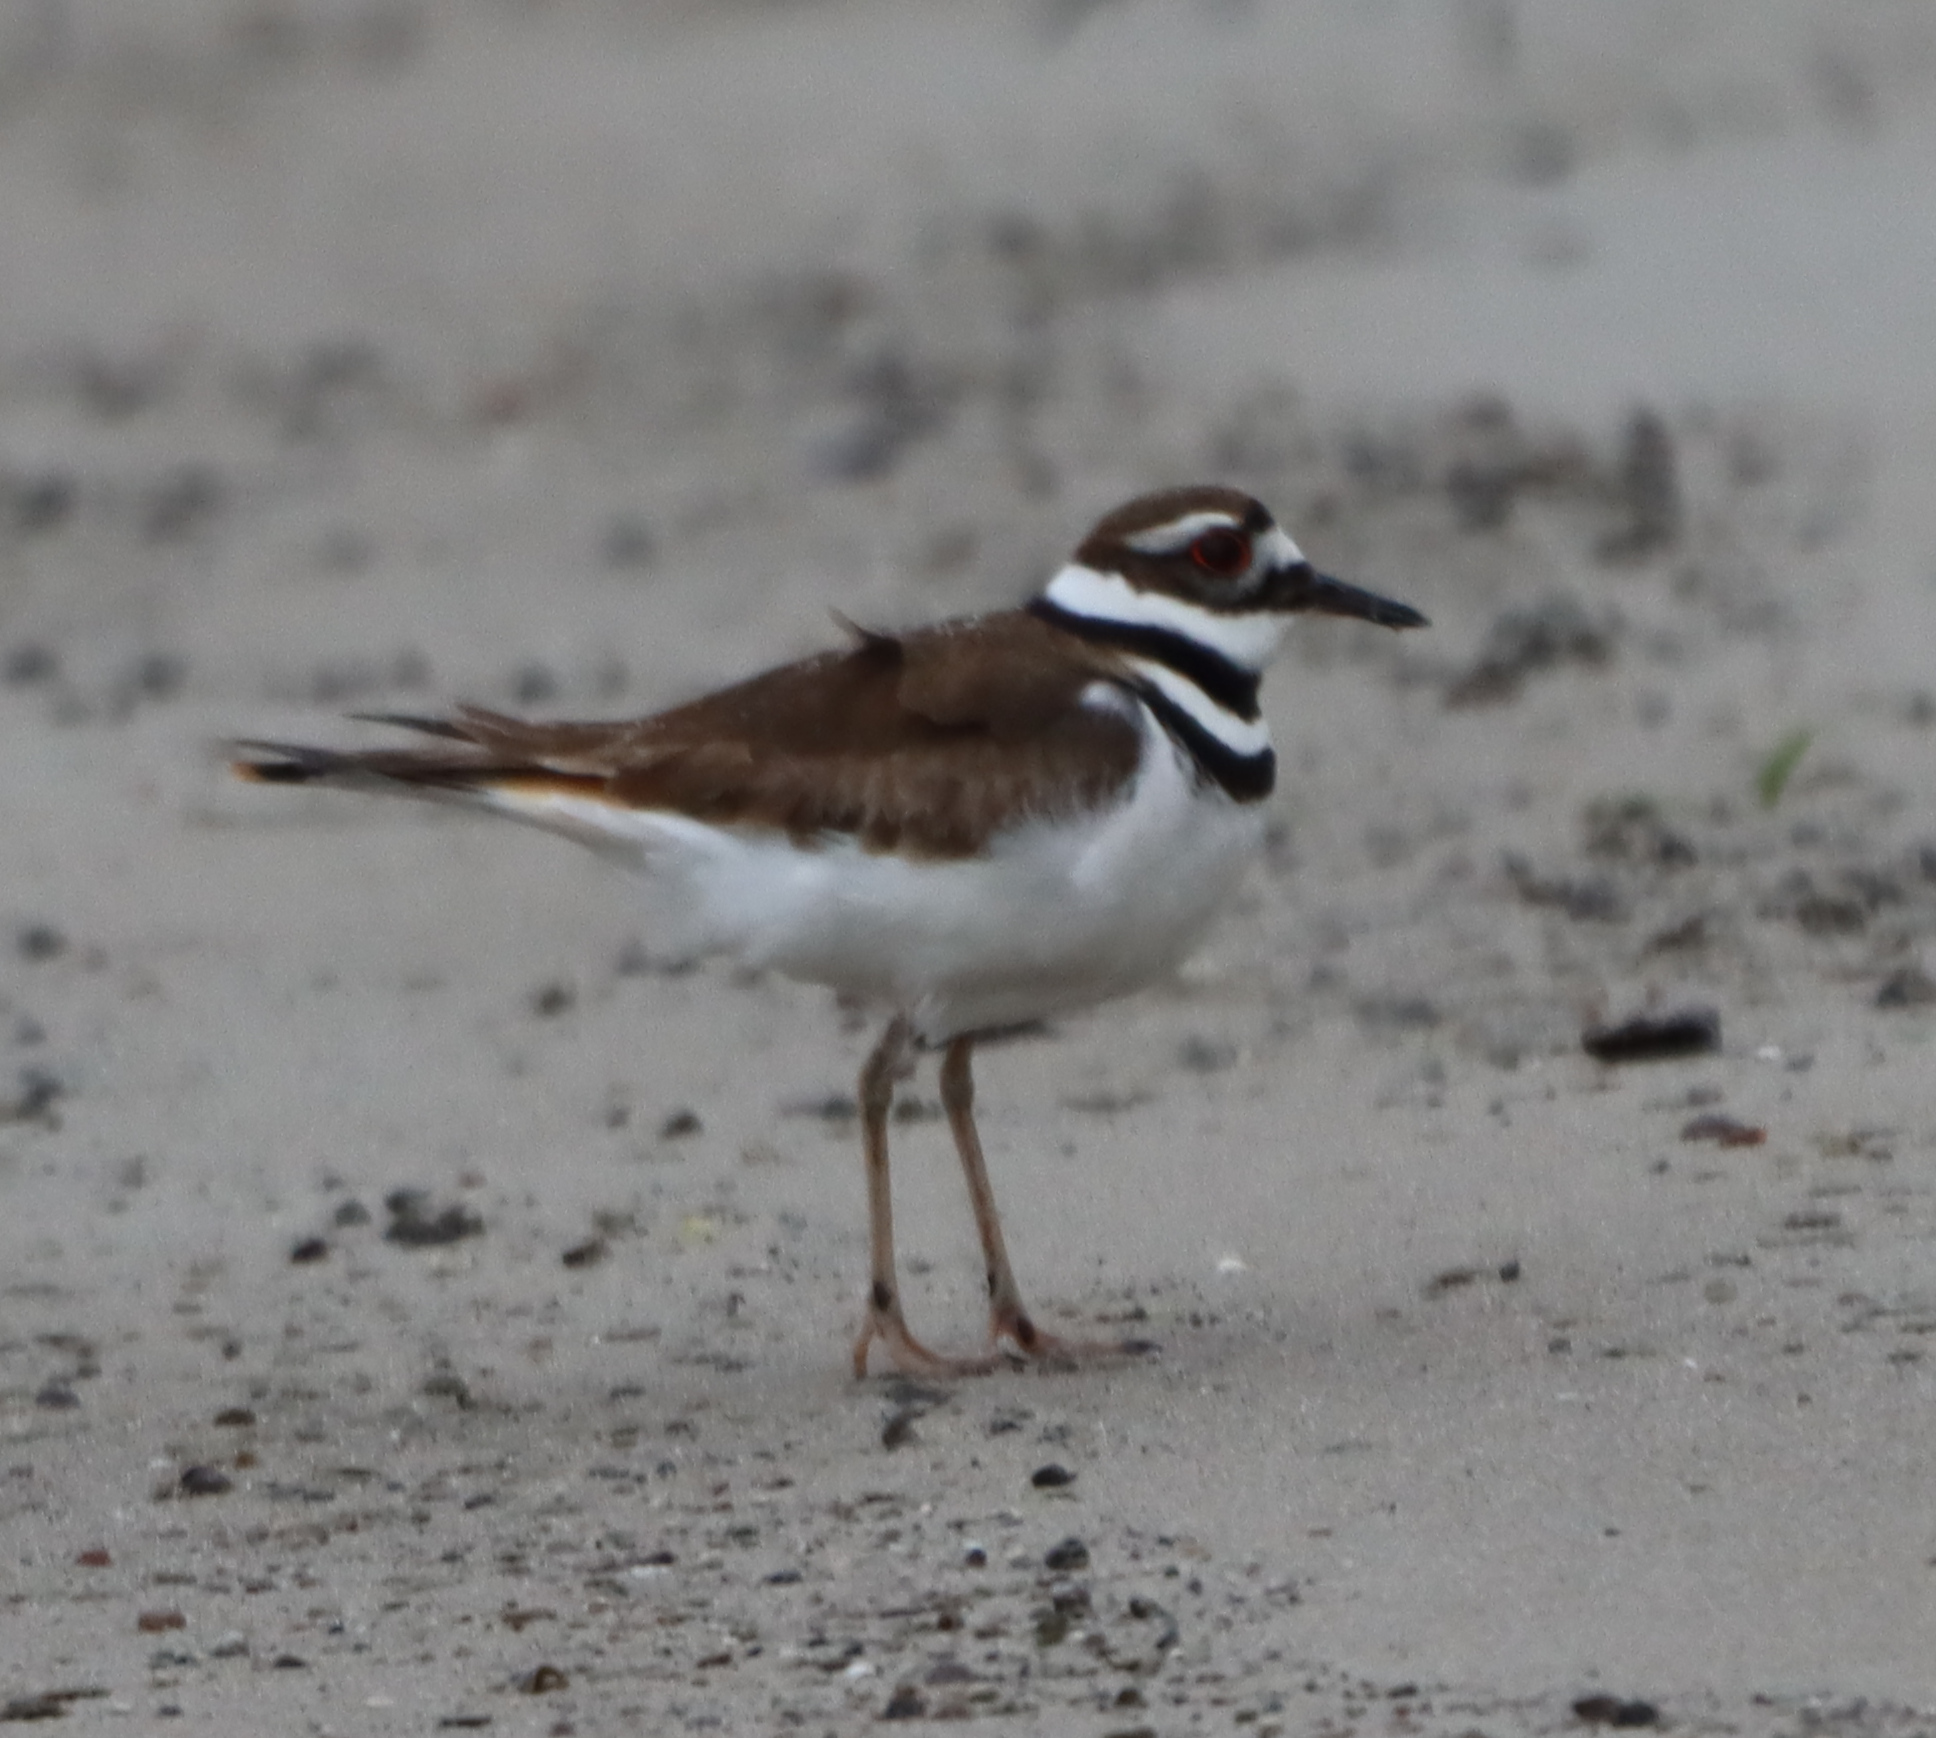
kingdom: Animalia
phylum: Chordata
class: Aves
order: Charadriiformes
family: Charadriidae
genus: Charadrius
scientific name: Charadrius vociferus
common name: Killdeer
